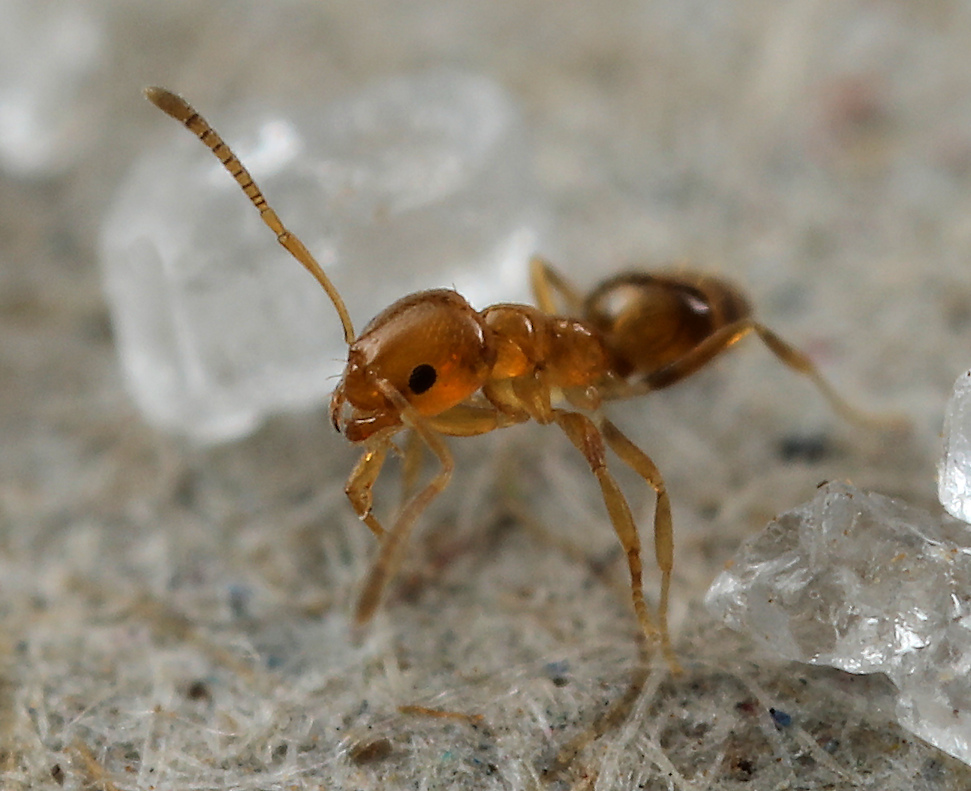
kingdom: Animalia
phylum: Arthropoda
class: Insecta
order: Hymenoptera
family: Formicidae
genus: Plagiolepis
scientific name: Plagiolepis brunni
